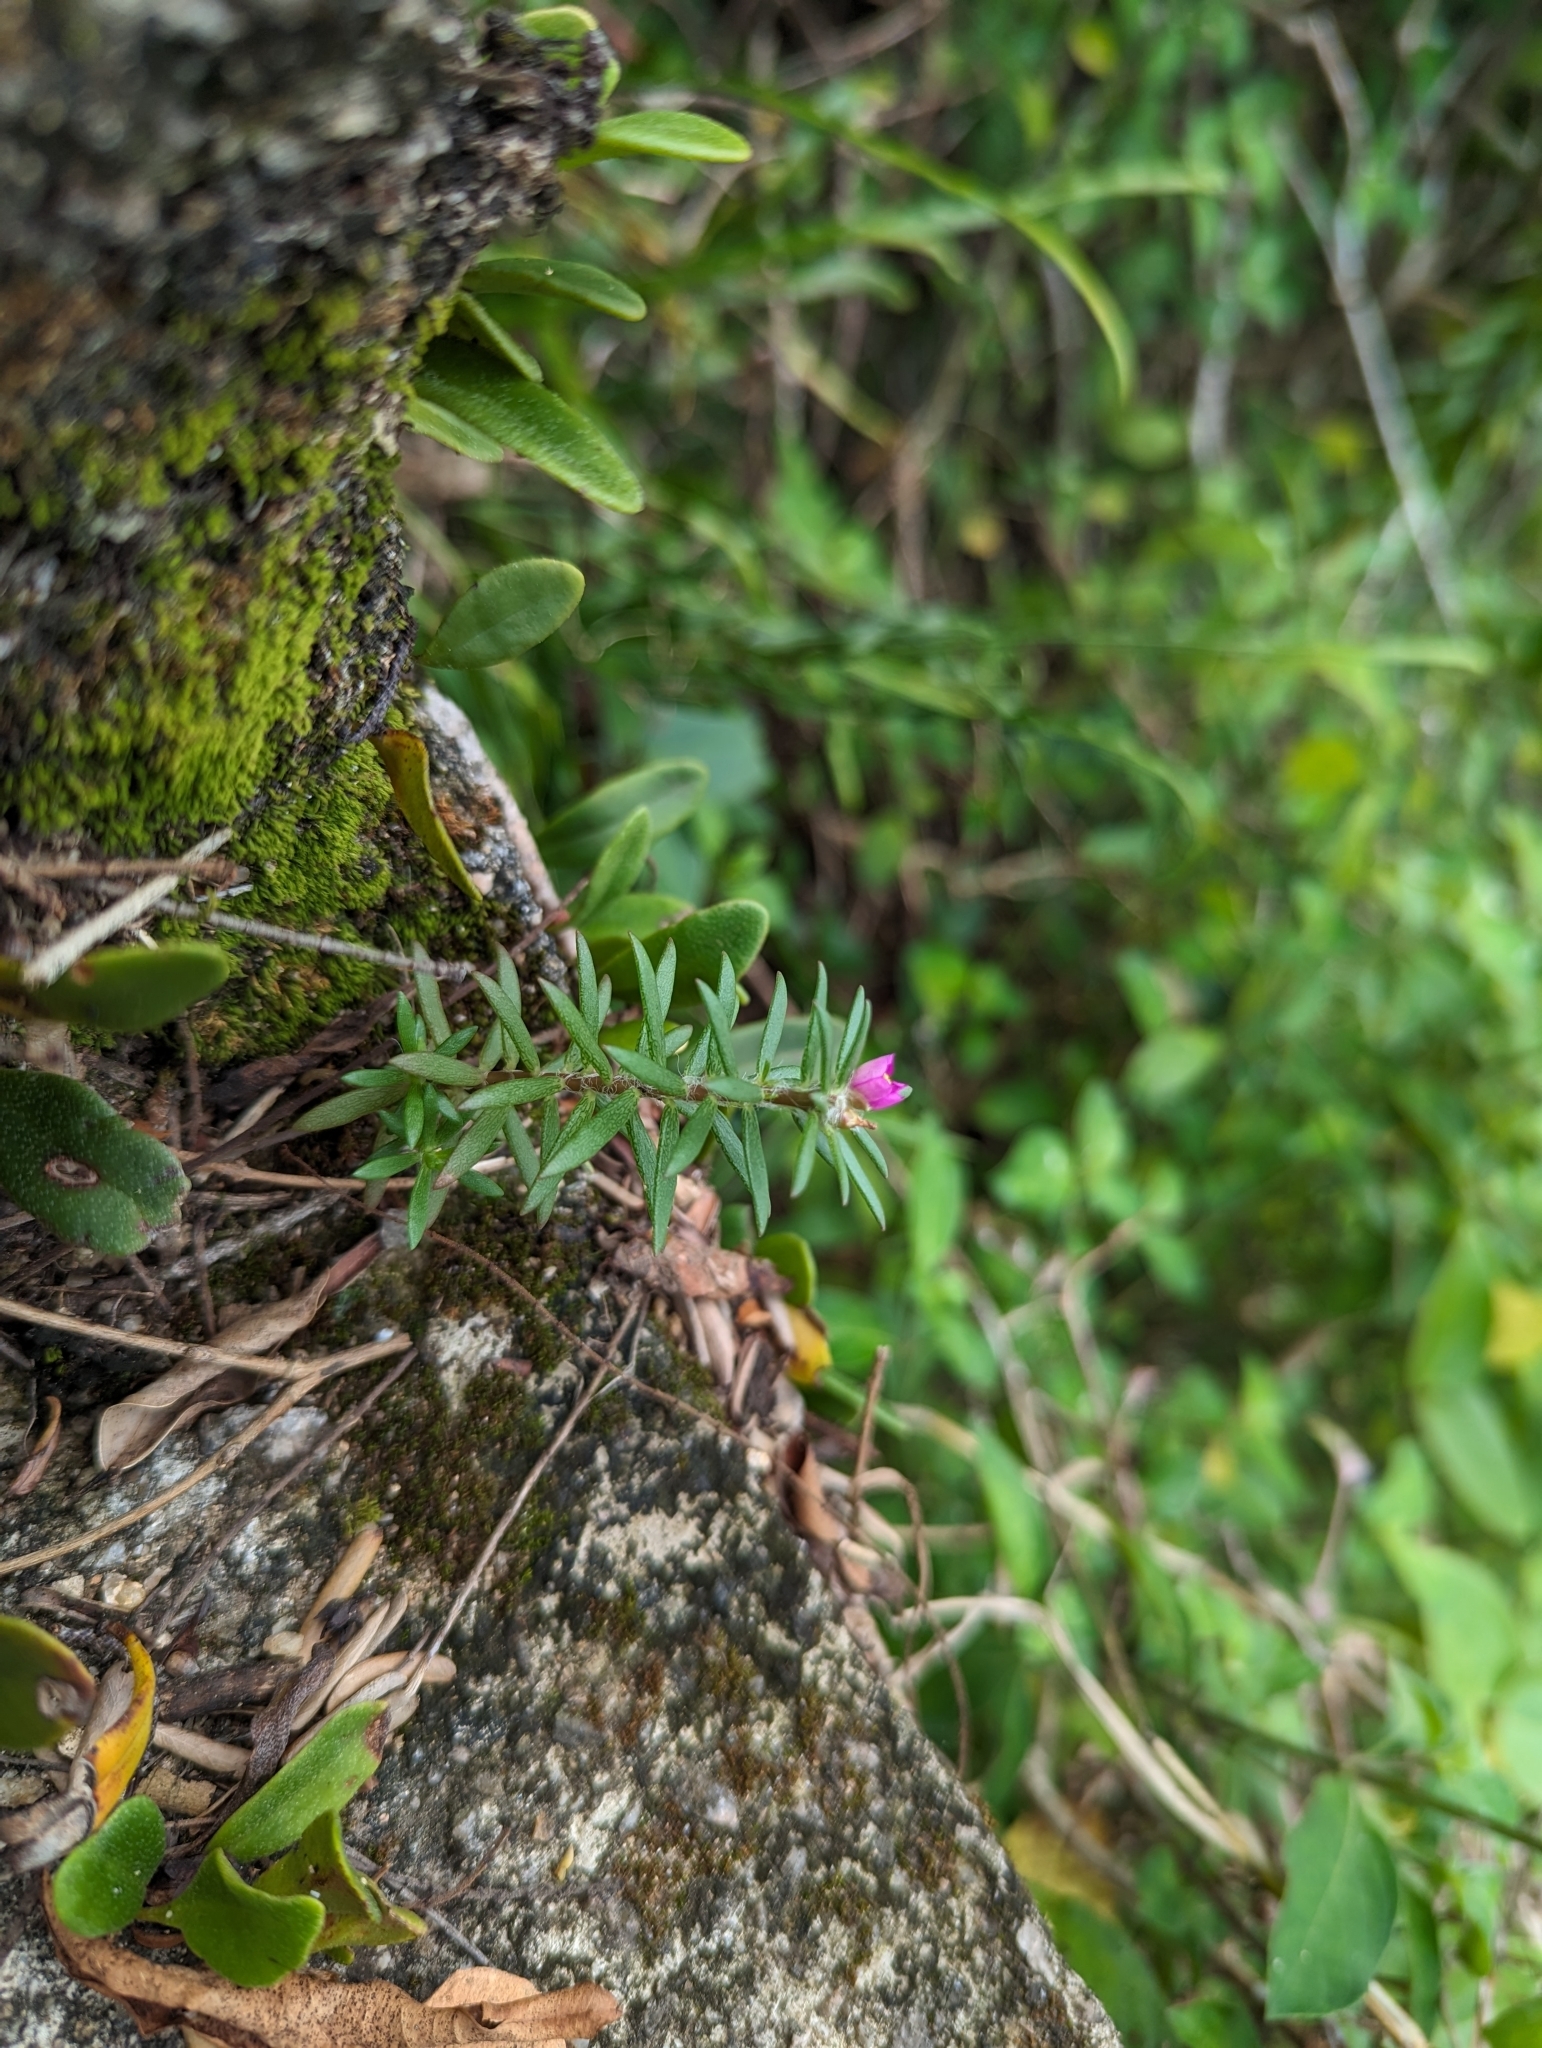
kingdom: Plantae
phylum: Tracheophyta
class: Magnoliopsida
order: Caryophyllales
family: Portulacaceae
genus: Portulaca
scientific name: Portulaca pilosa
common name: Kiss me quick
